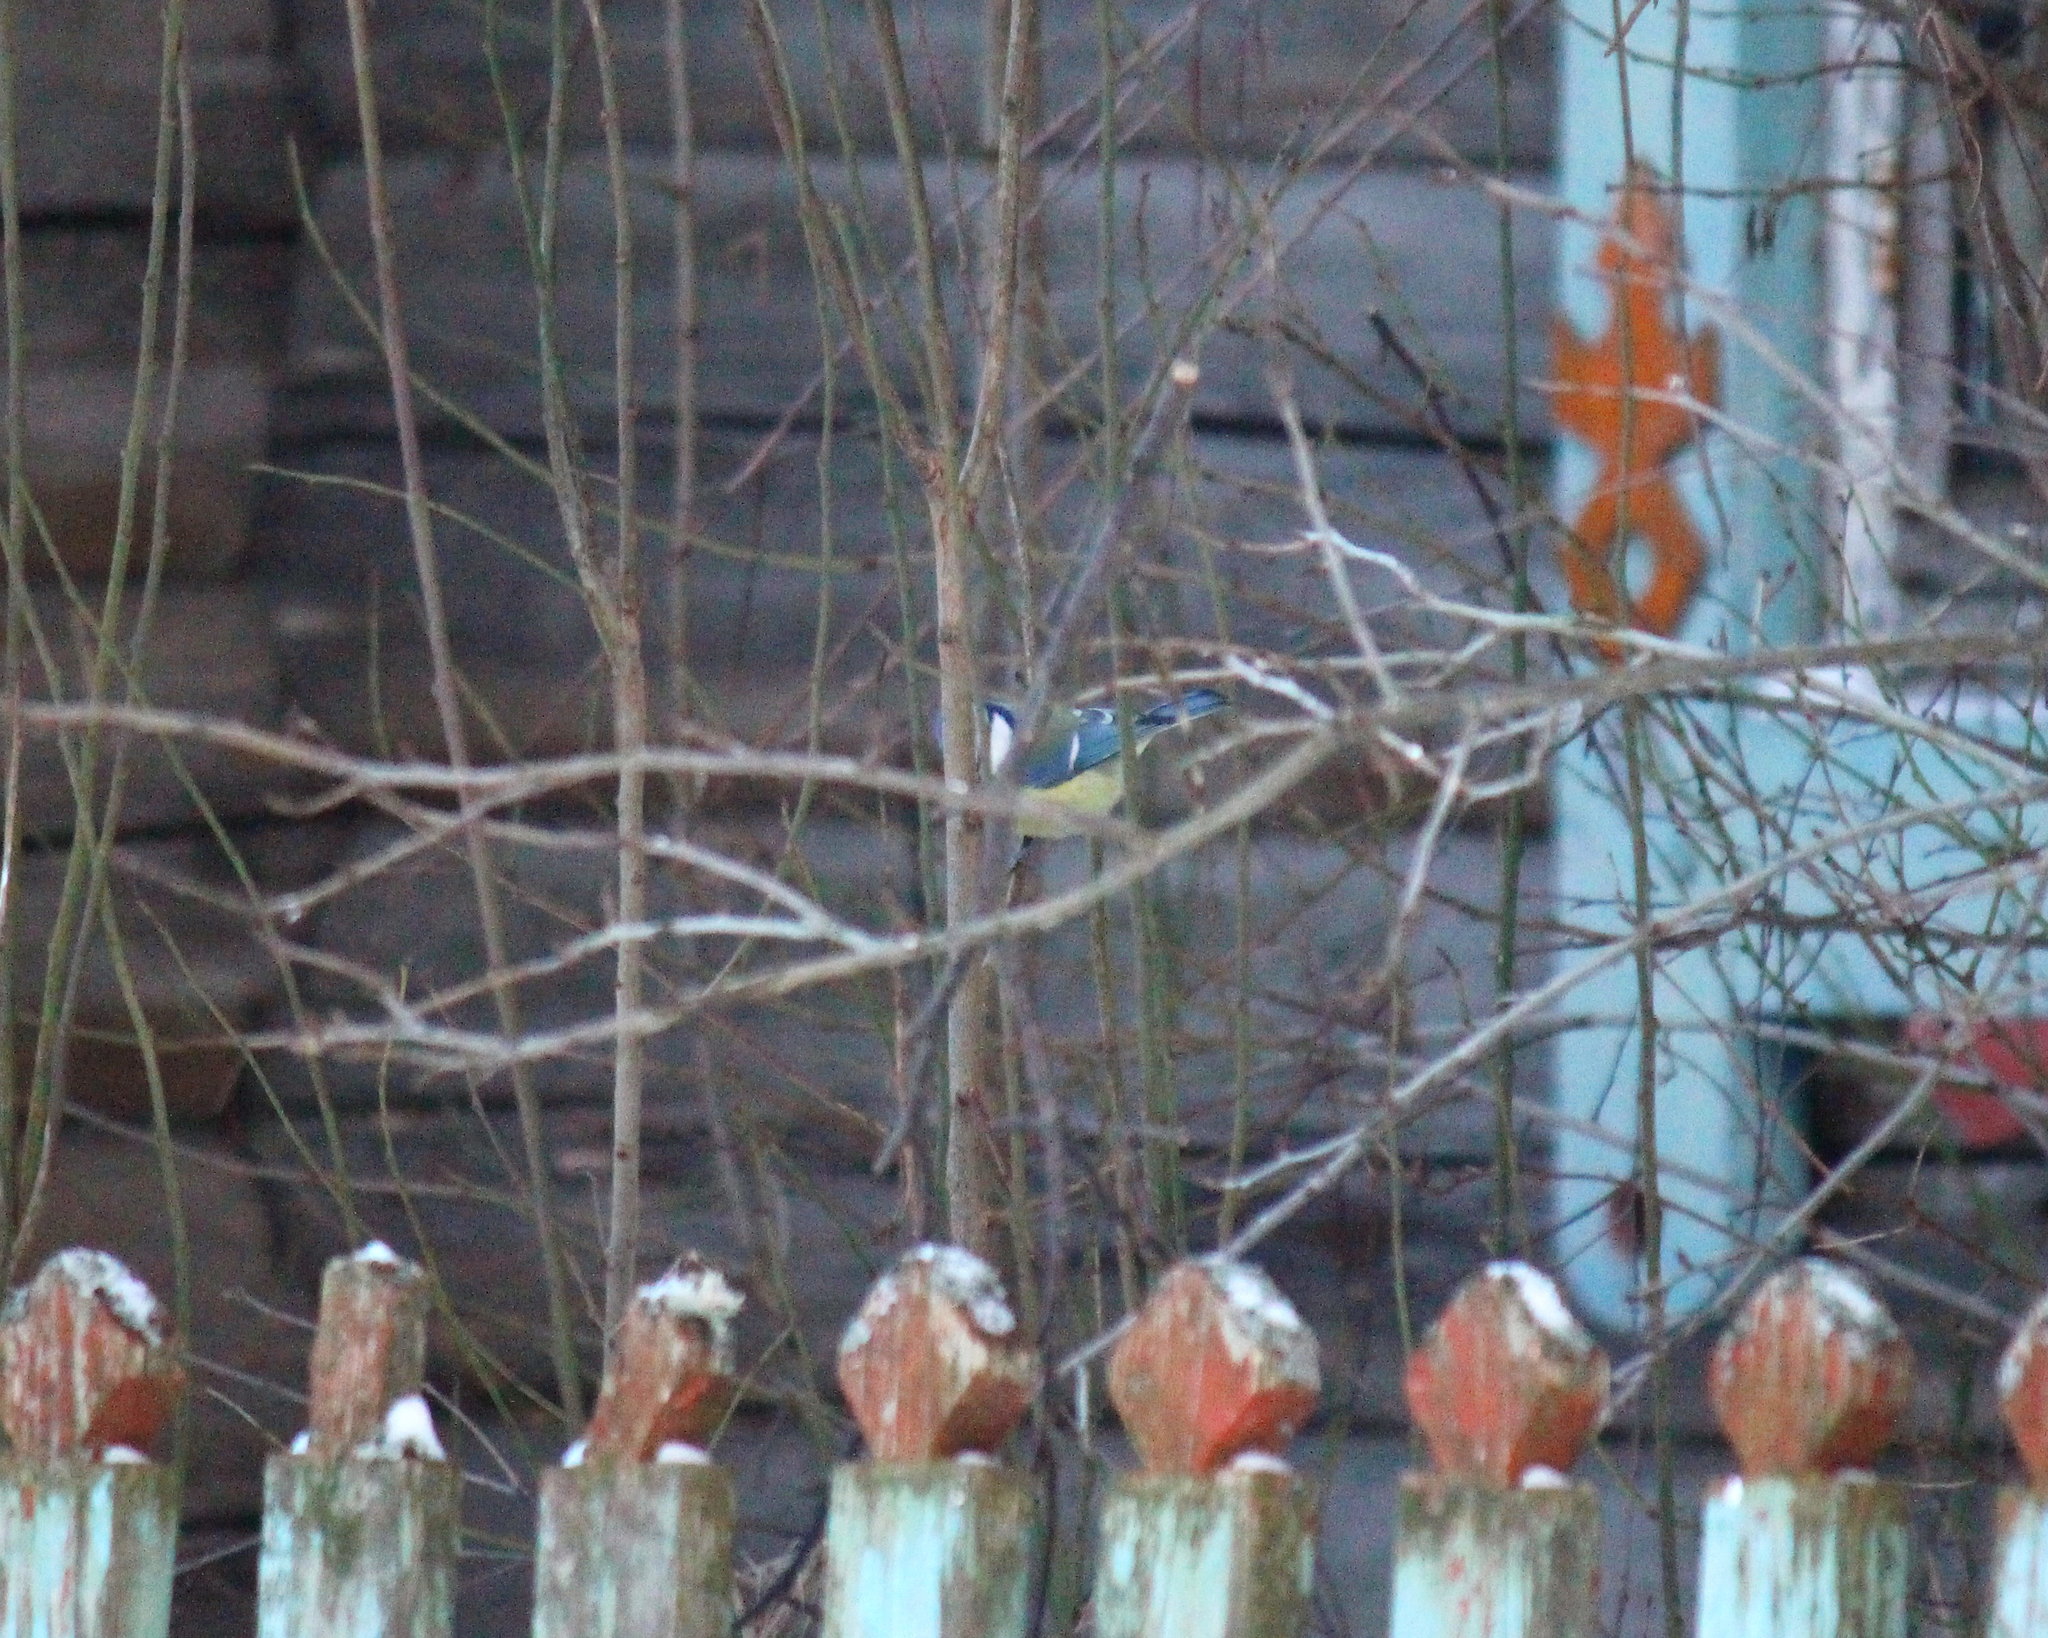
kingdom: Animalia
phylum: Chordata
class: Aves
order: Passeriformes
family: Paridae
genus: Cyanistes
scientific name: Cyanistes caeruleus
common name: Eurasian blue tit
